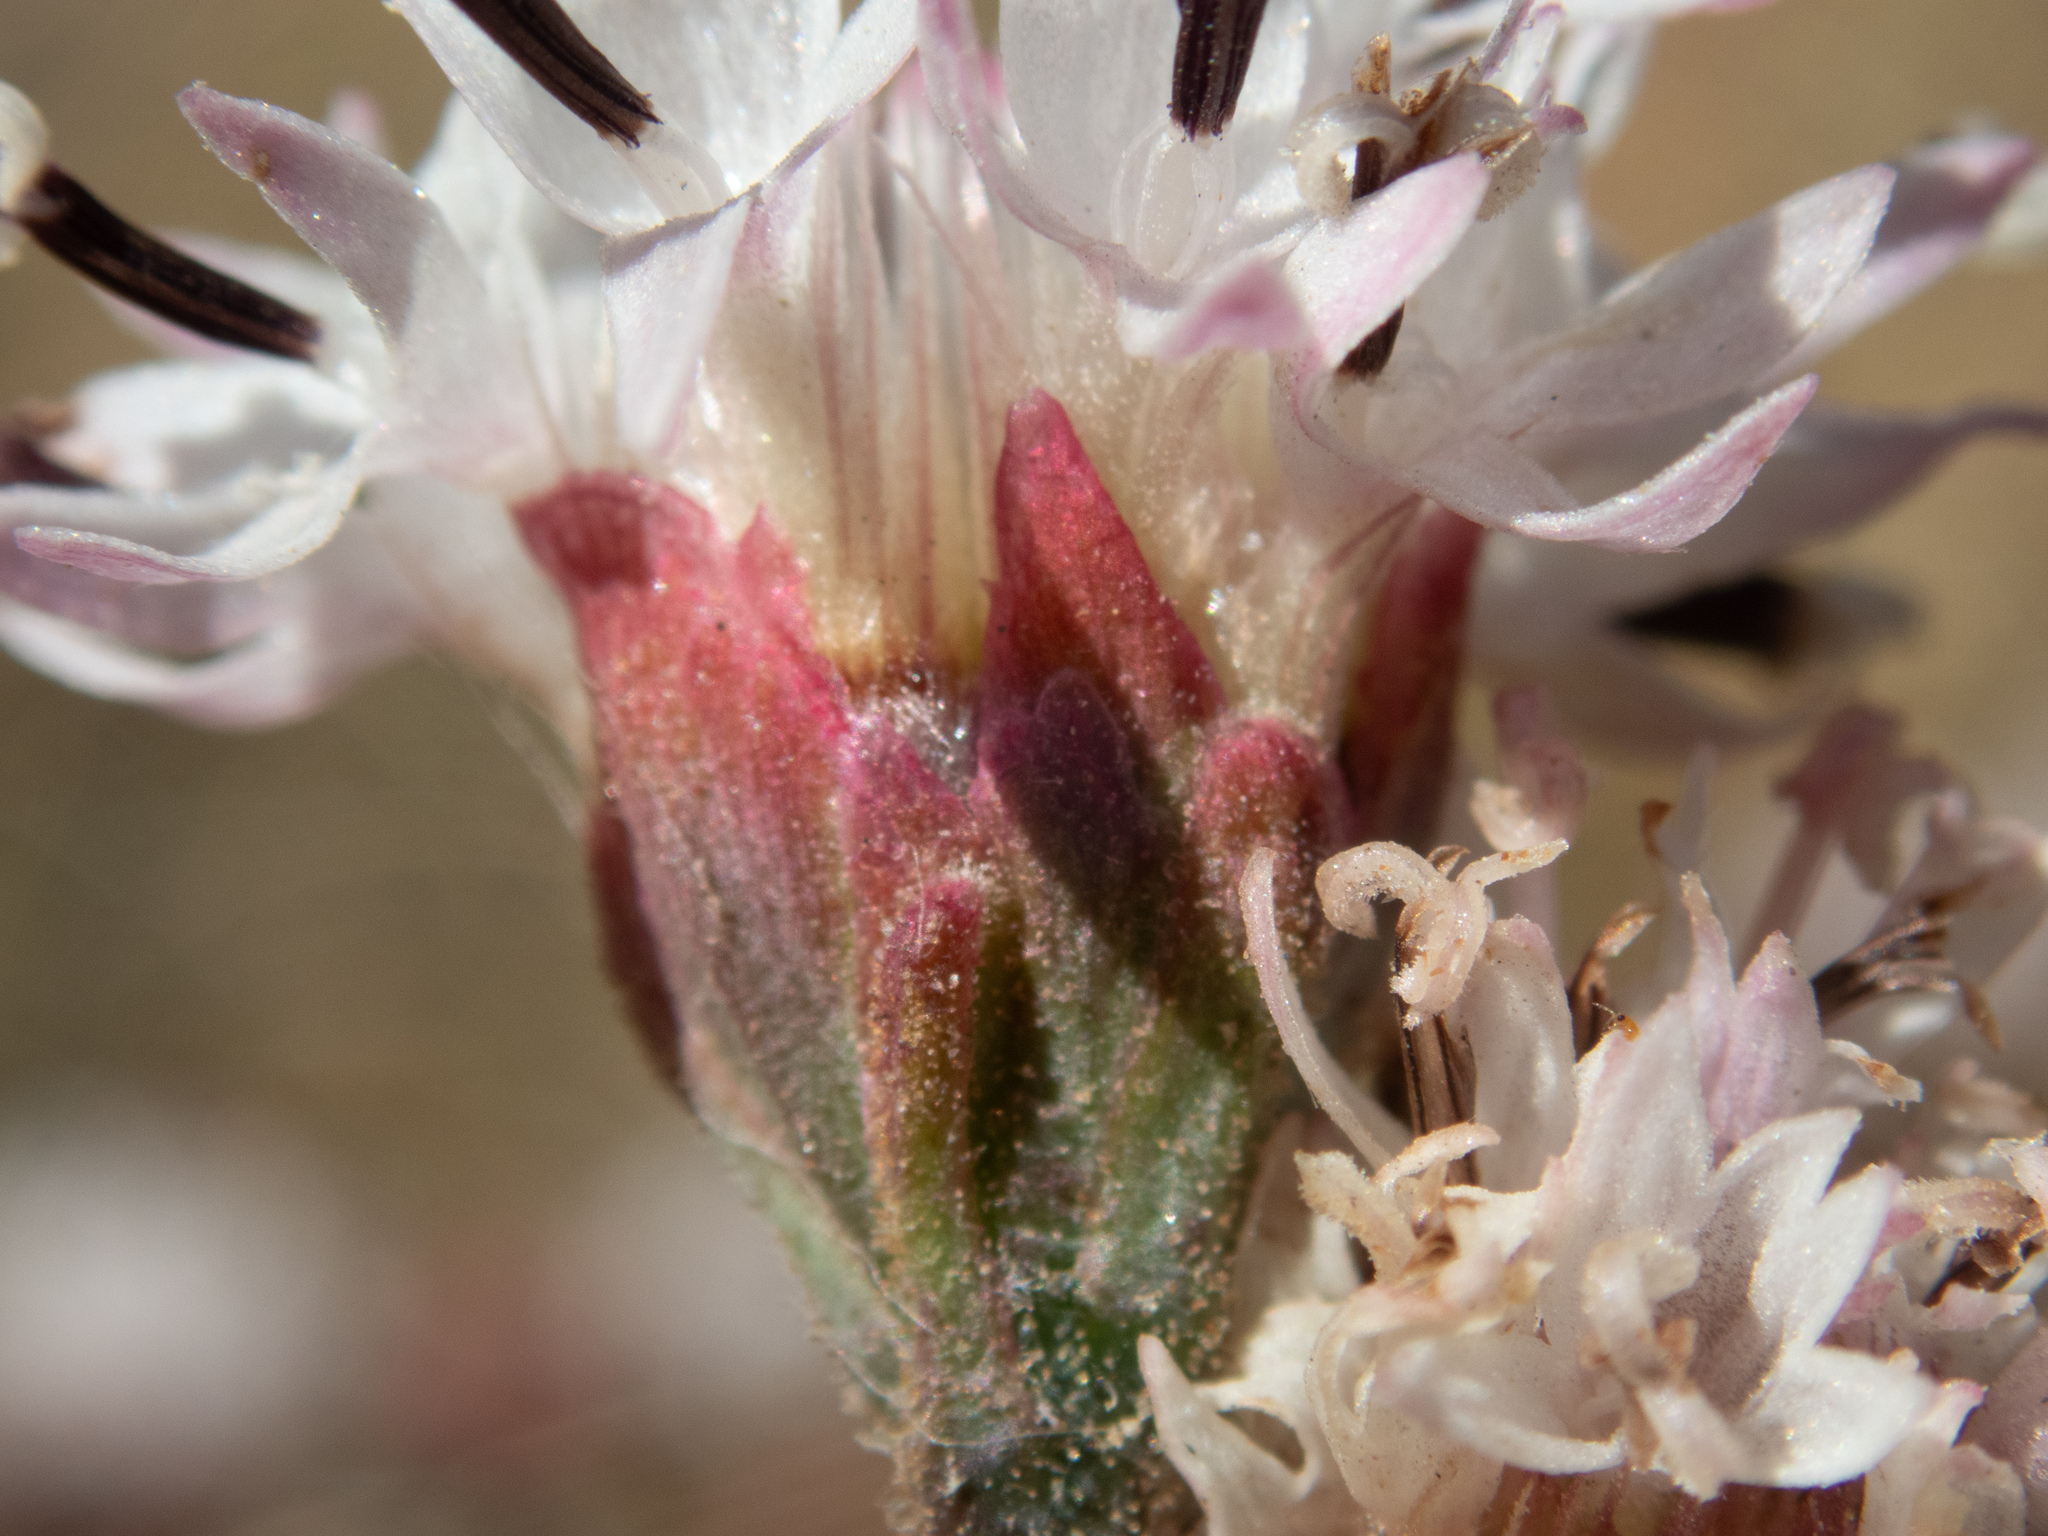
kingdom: Plantae
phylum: Tracheophyta
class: Magnoliopsida
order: Asterales
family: Asteraceae
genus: Hymenothrix
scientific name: Hymenothrix wrightii
